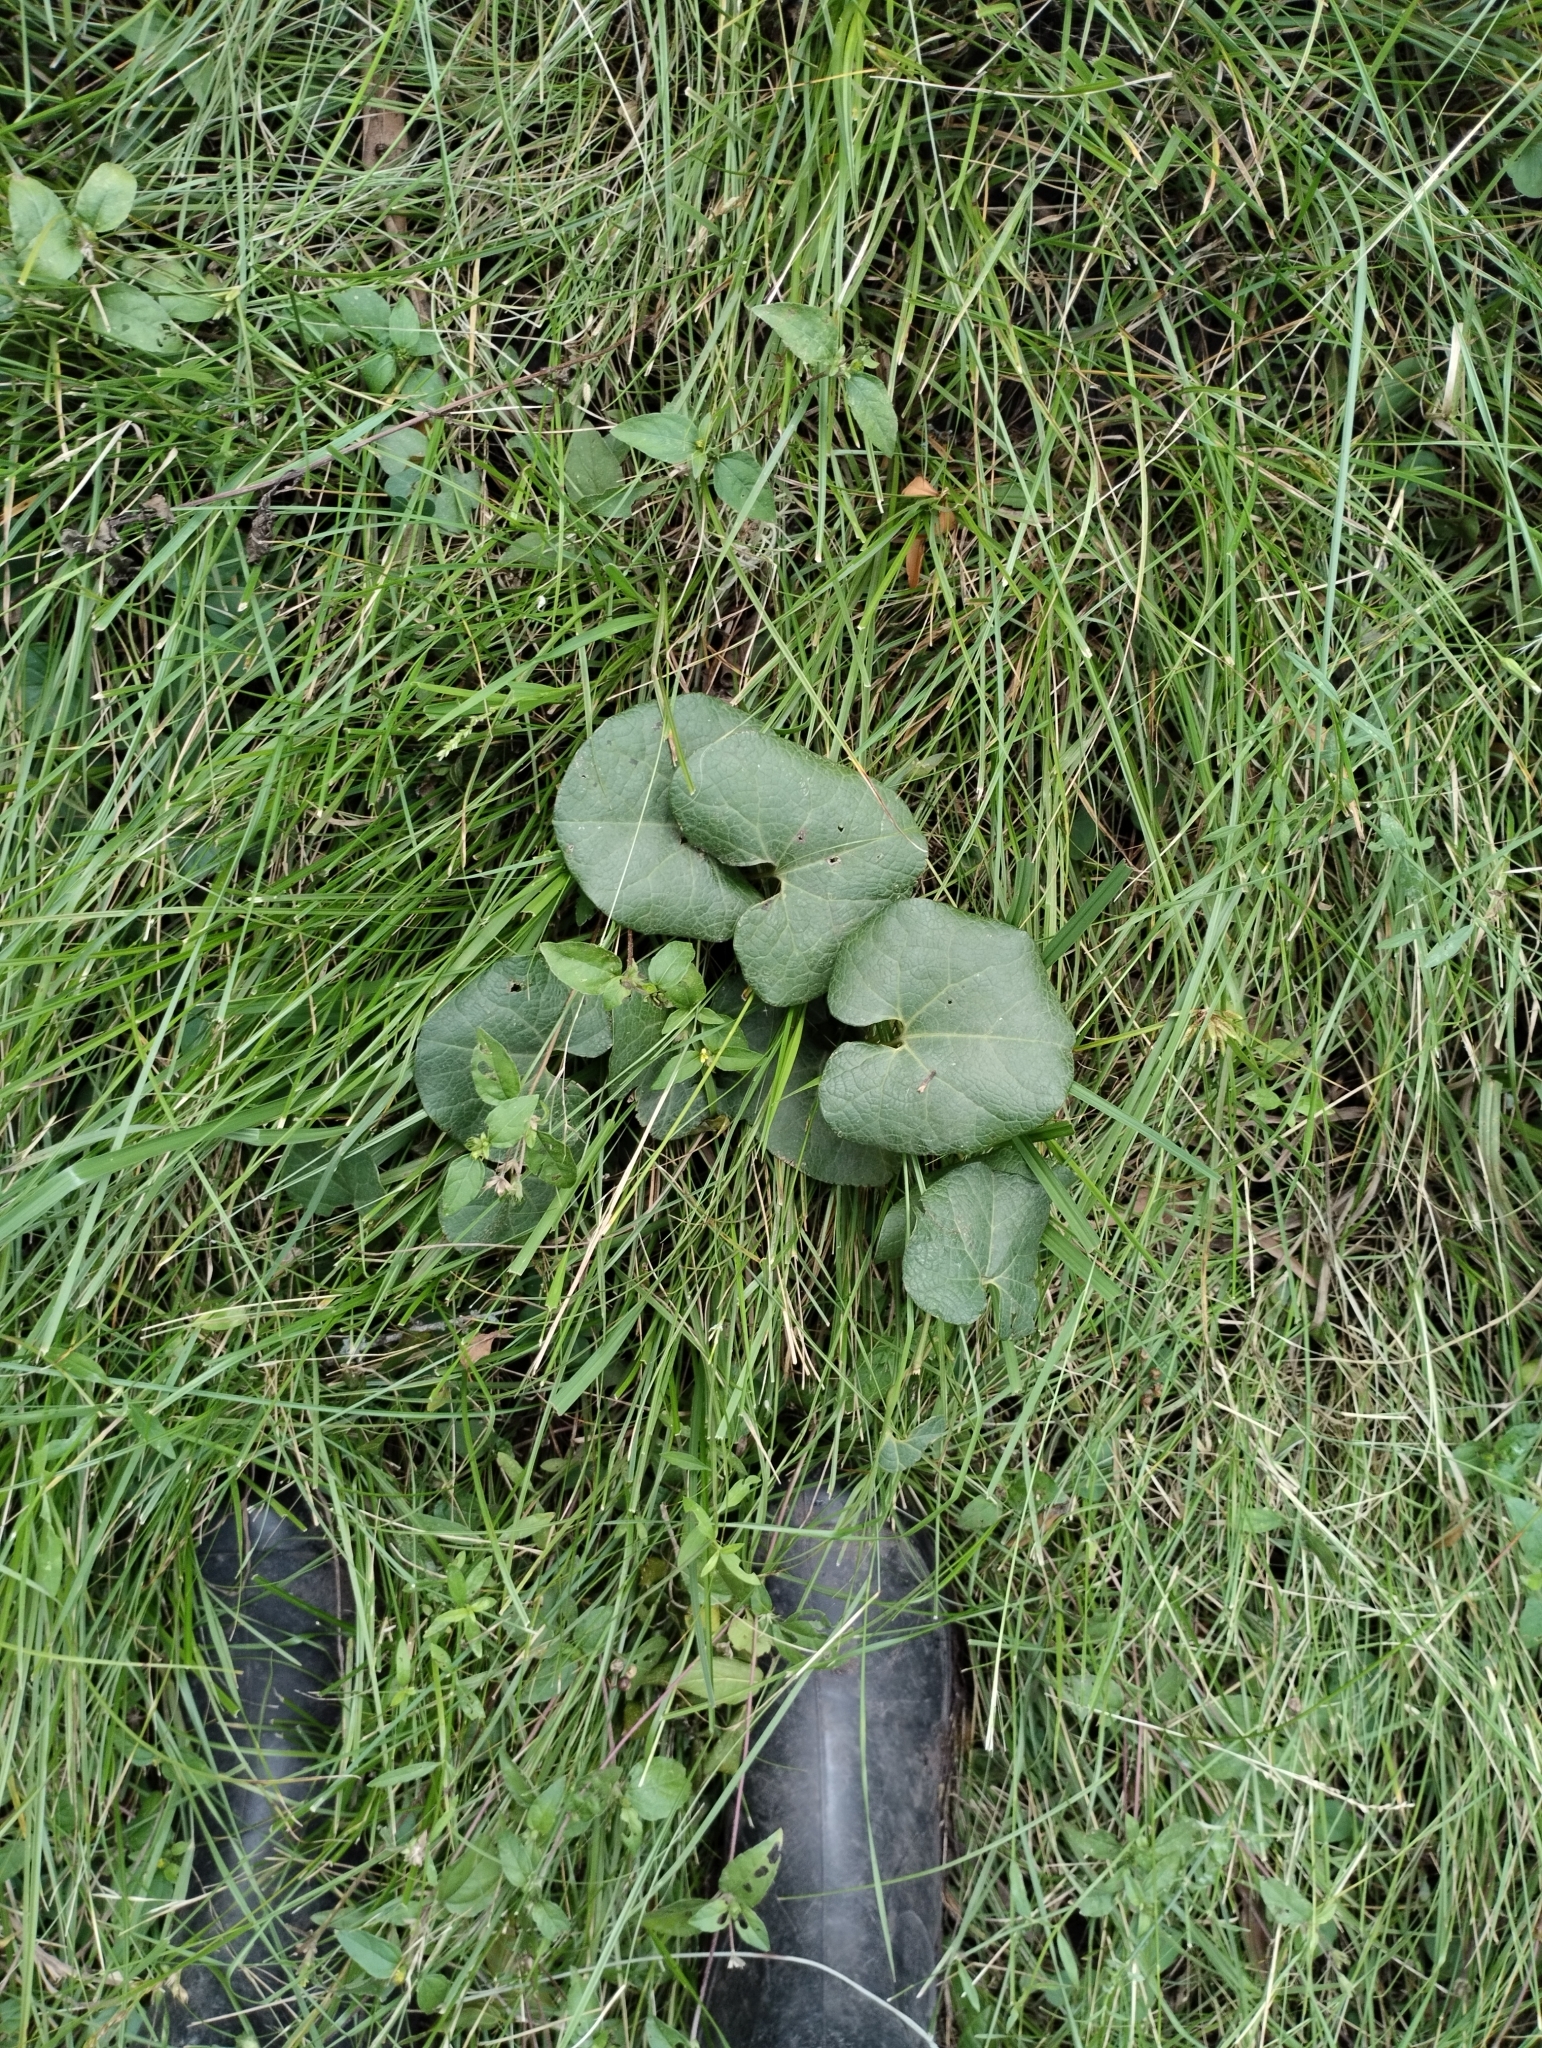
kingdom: Plantae
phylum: Tracheophyta
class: Magnoliopsida
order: Piperales
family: Aristolochiaceae
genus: Aristolochia
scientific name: Aristolochia fimbriata
